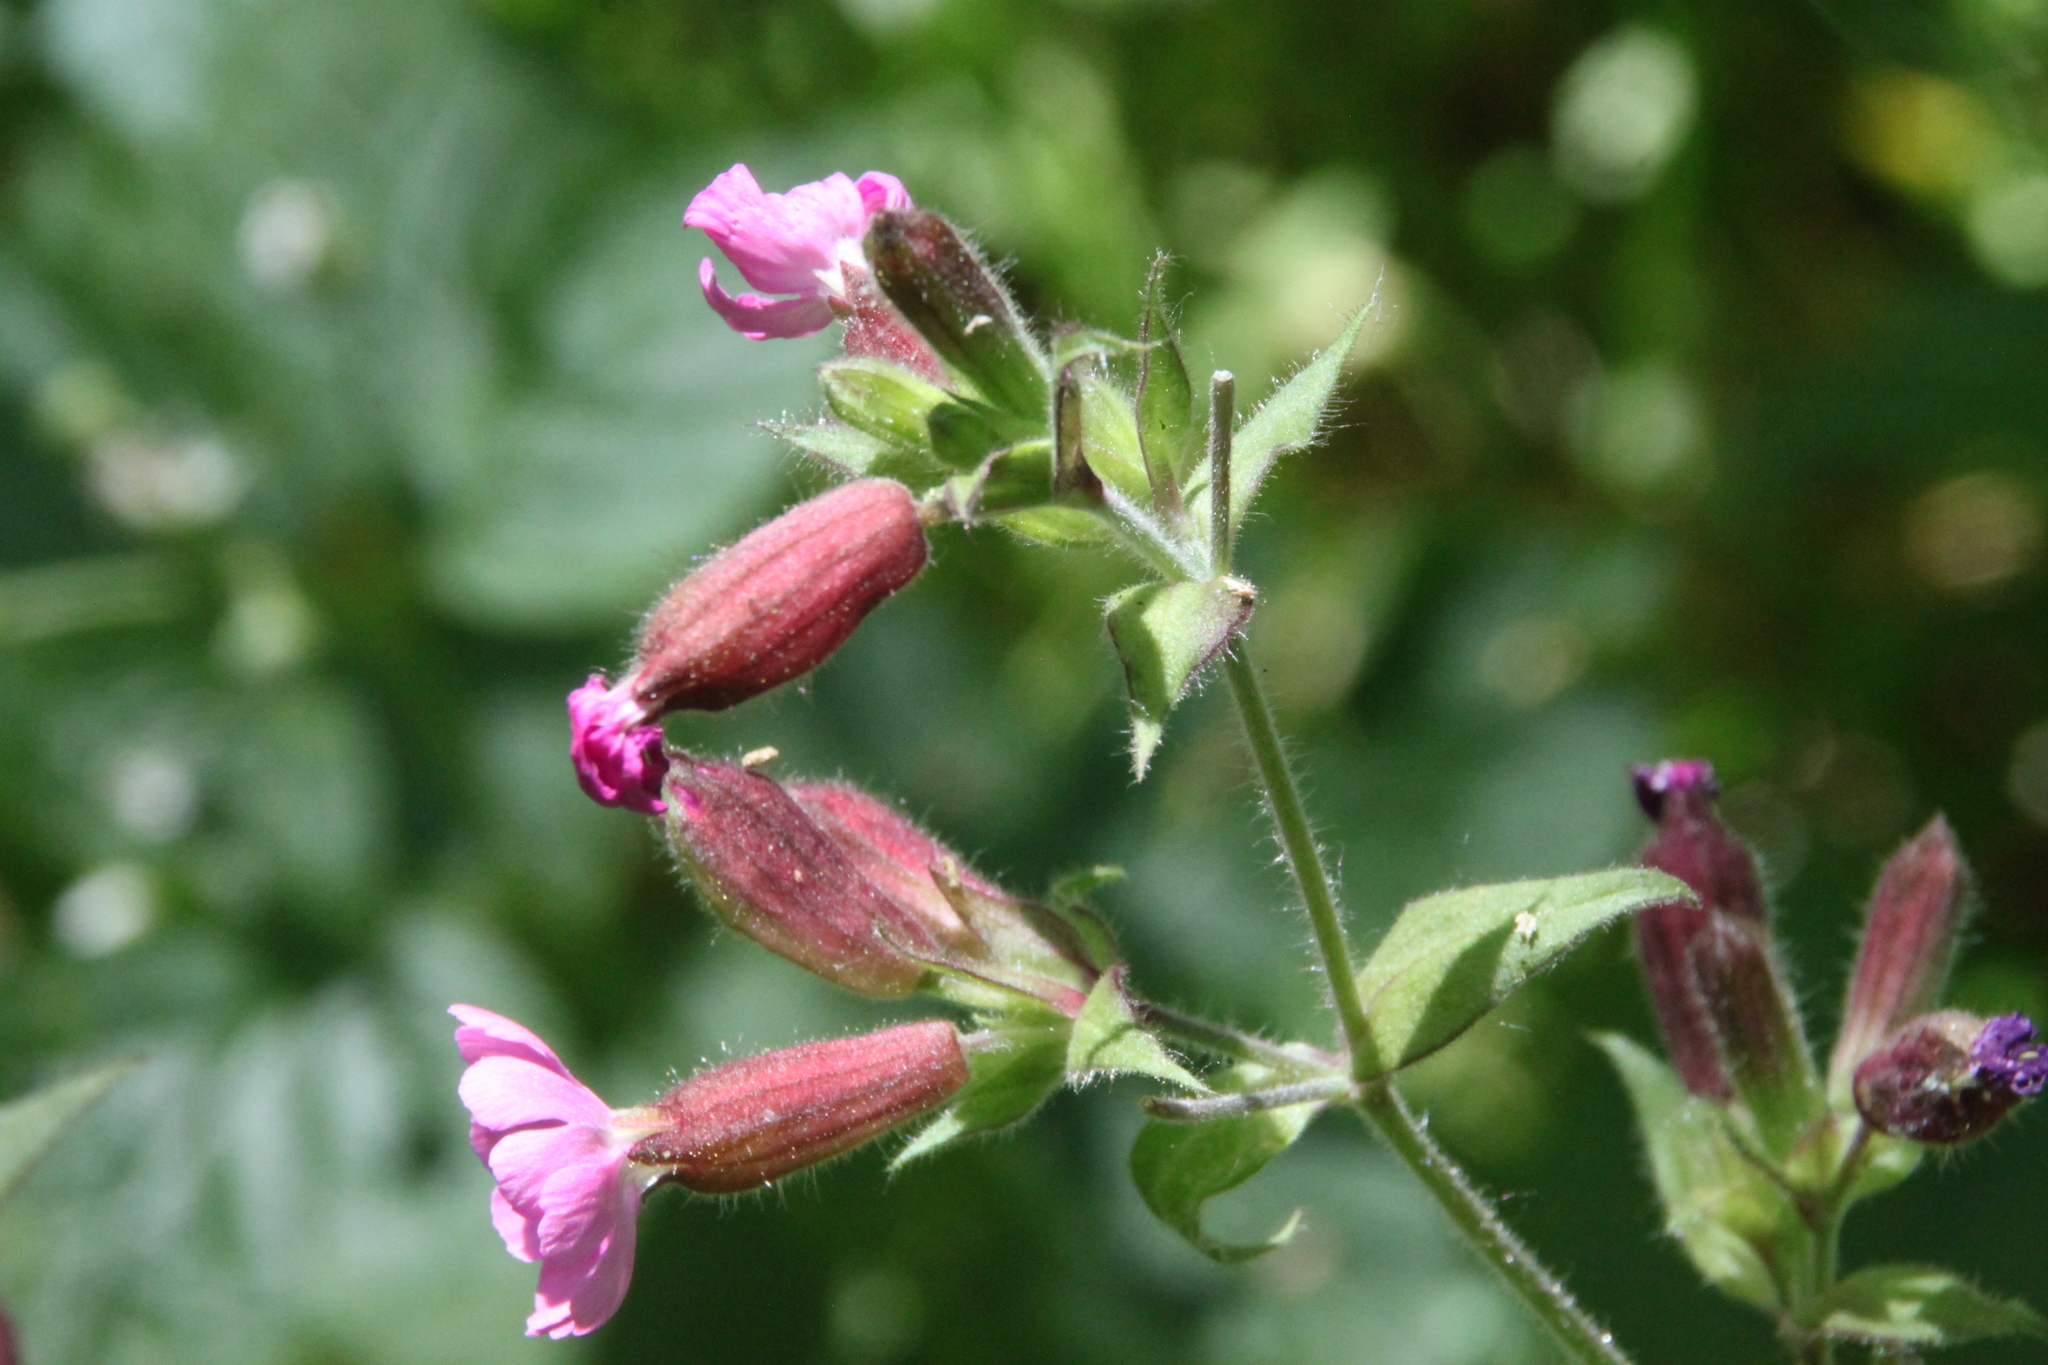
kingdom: Plantae
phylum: Tracheophyta
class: Magnoliopsida
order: Caryophyllales
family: Caryophyllaceae
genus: Silene
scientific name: Silene dioica
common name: Red campion
